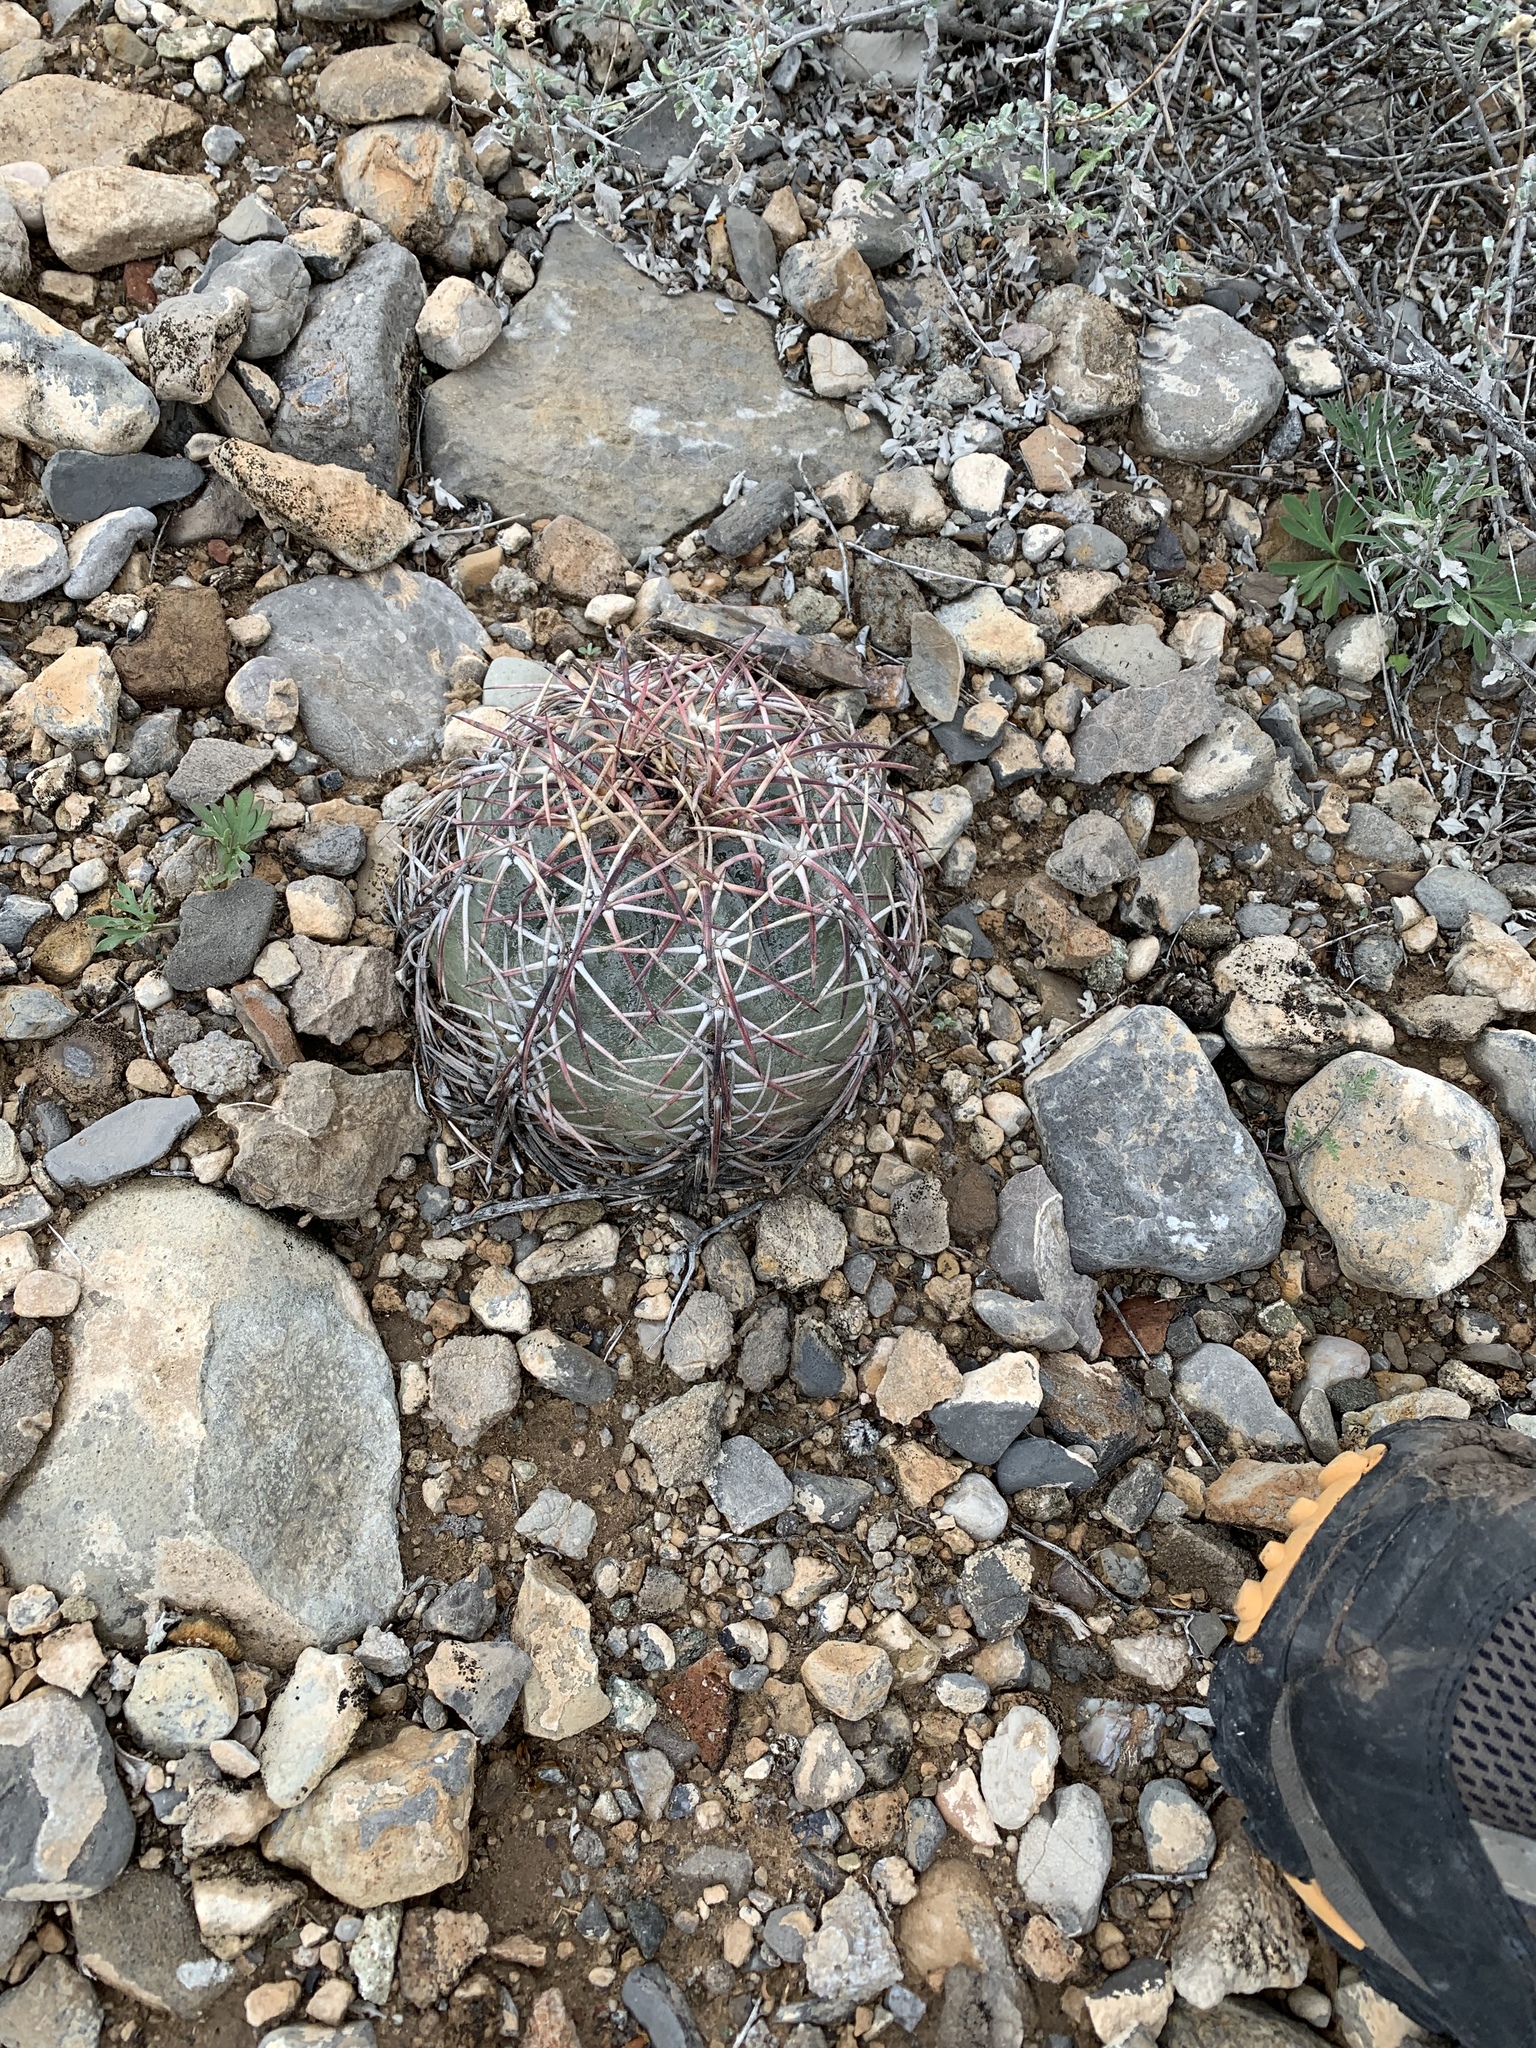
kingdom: Plantae
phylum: Tracheophyta
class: Magnoliopsida
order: Caryophyllales
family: Cactaceae
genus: Echinocactus
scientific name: Echinocactus horizonthalonius
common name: Devilshead
